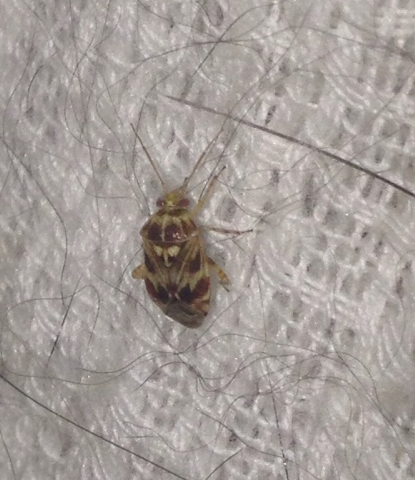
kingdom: Animalia
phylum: Arthropoda
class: Insecta
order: Hemiptera
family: Miridae
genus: Tropidosteptes
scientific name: Tropidosteptes quercicola
